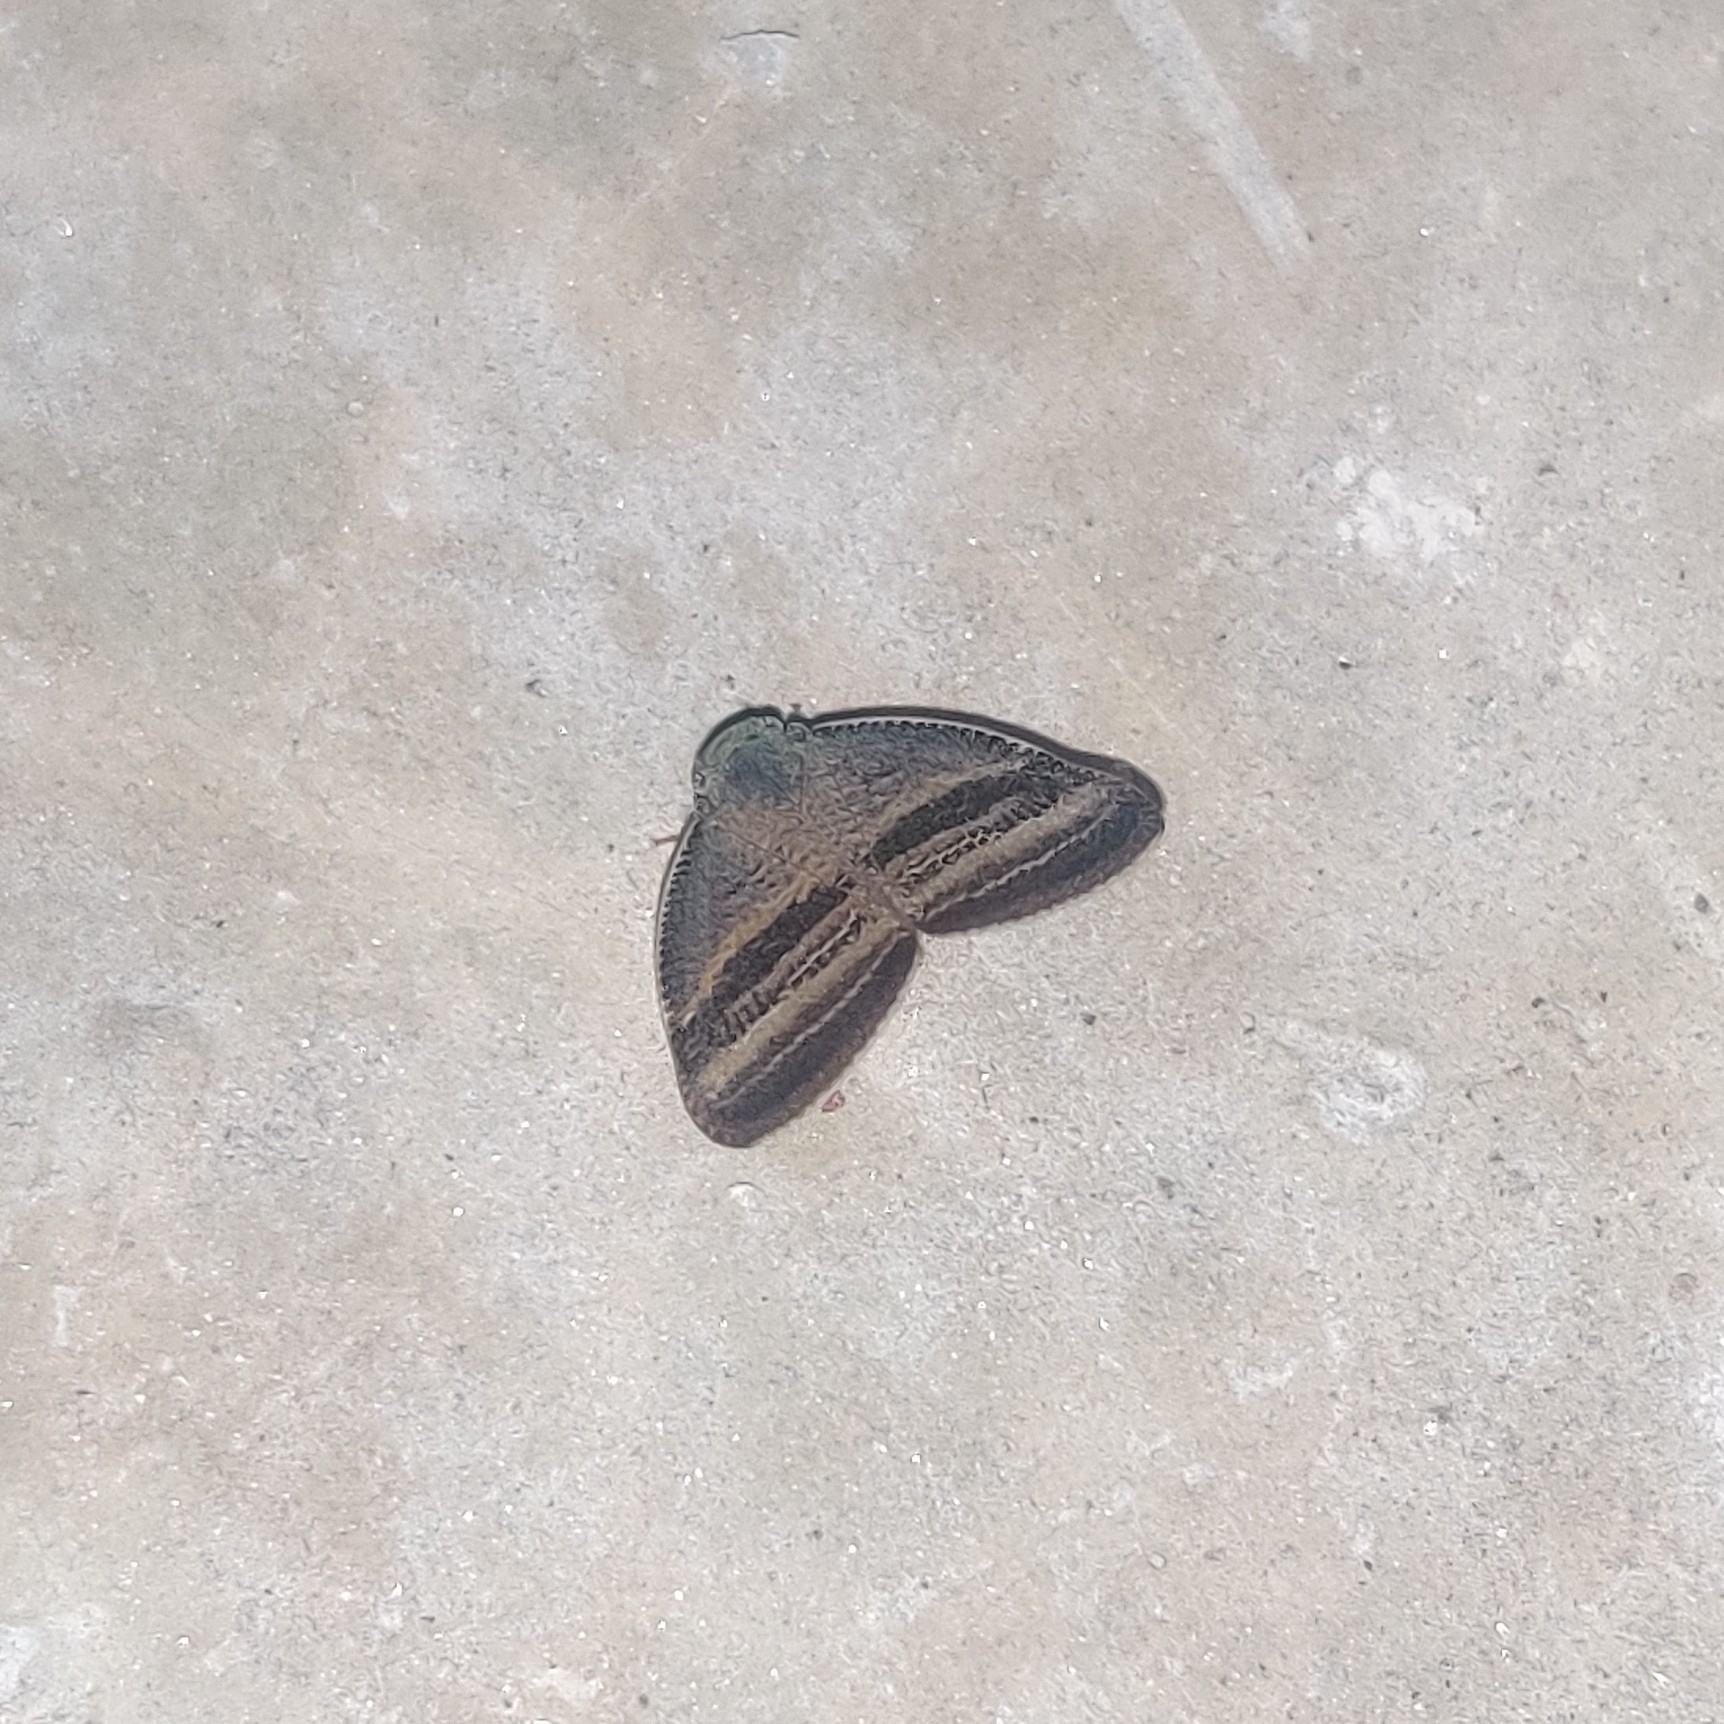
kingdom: Animalia
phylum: Arthropoda
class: Insecta
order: Hemiptera
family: Ricaniidae
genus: Ricania
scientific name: Ricania taeniata
